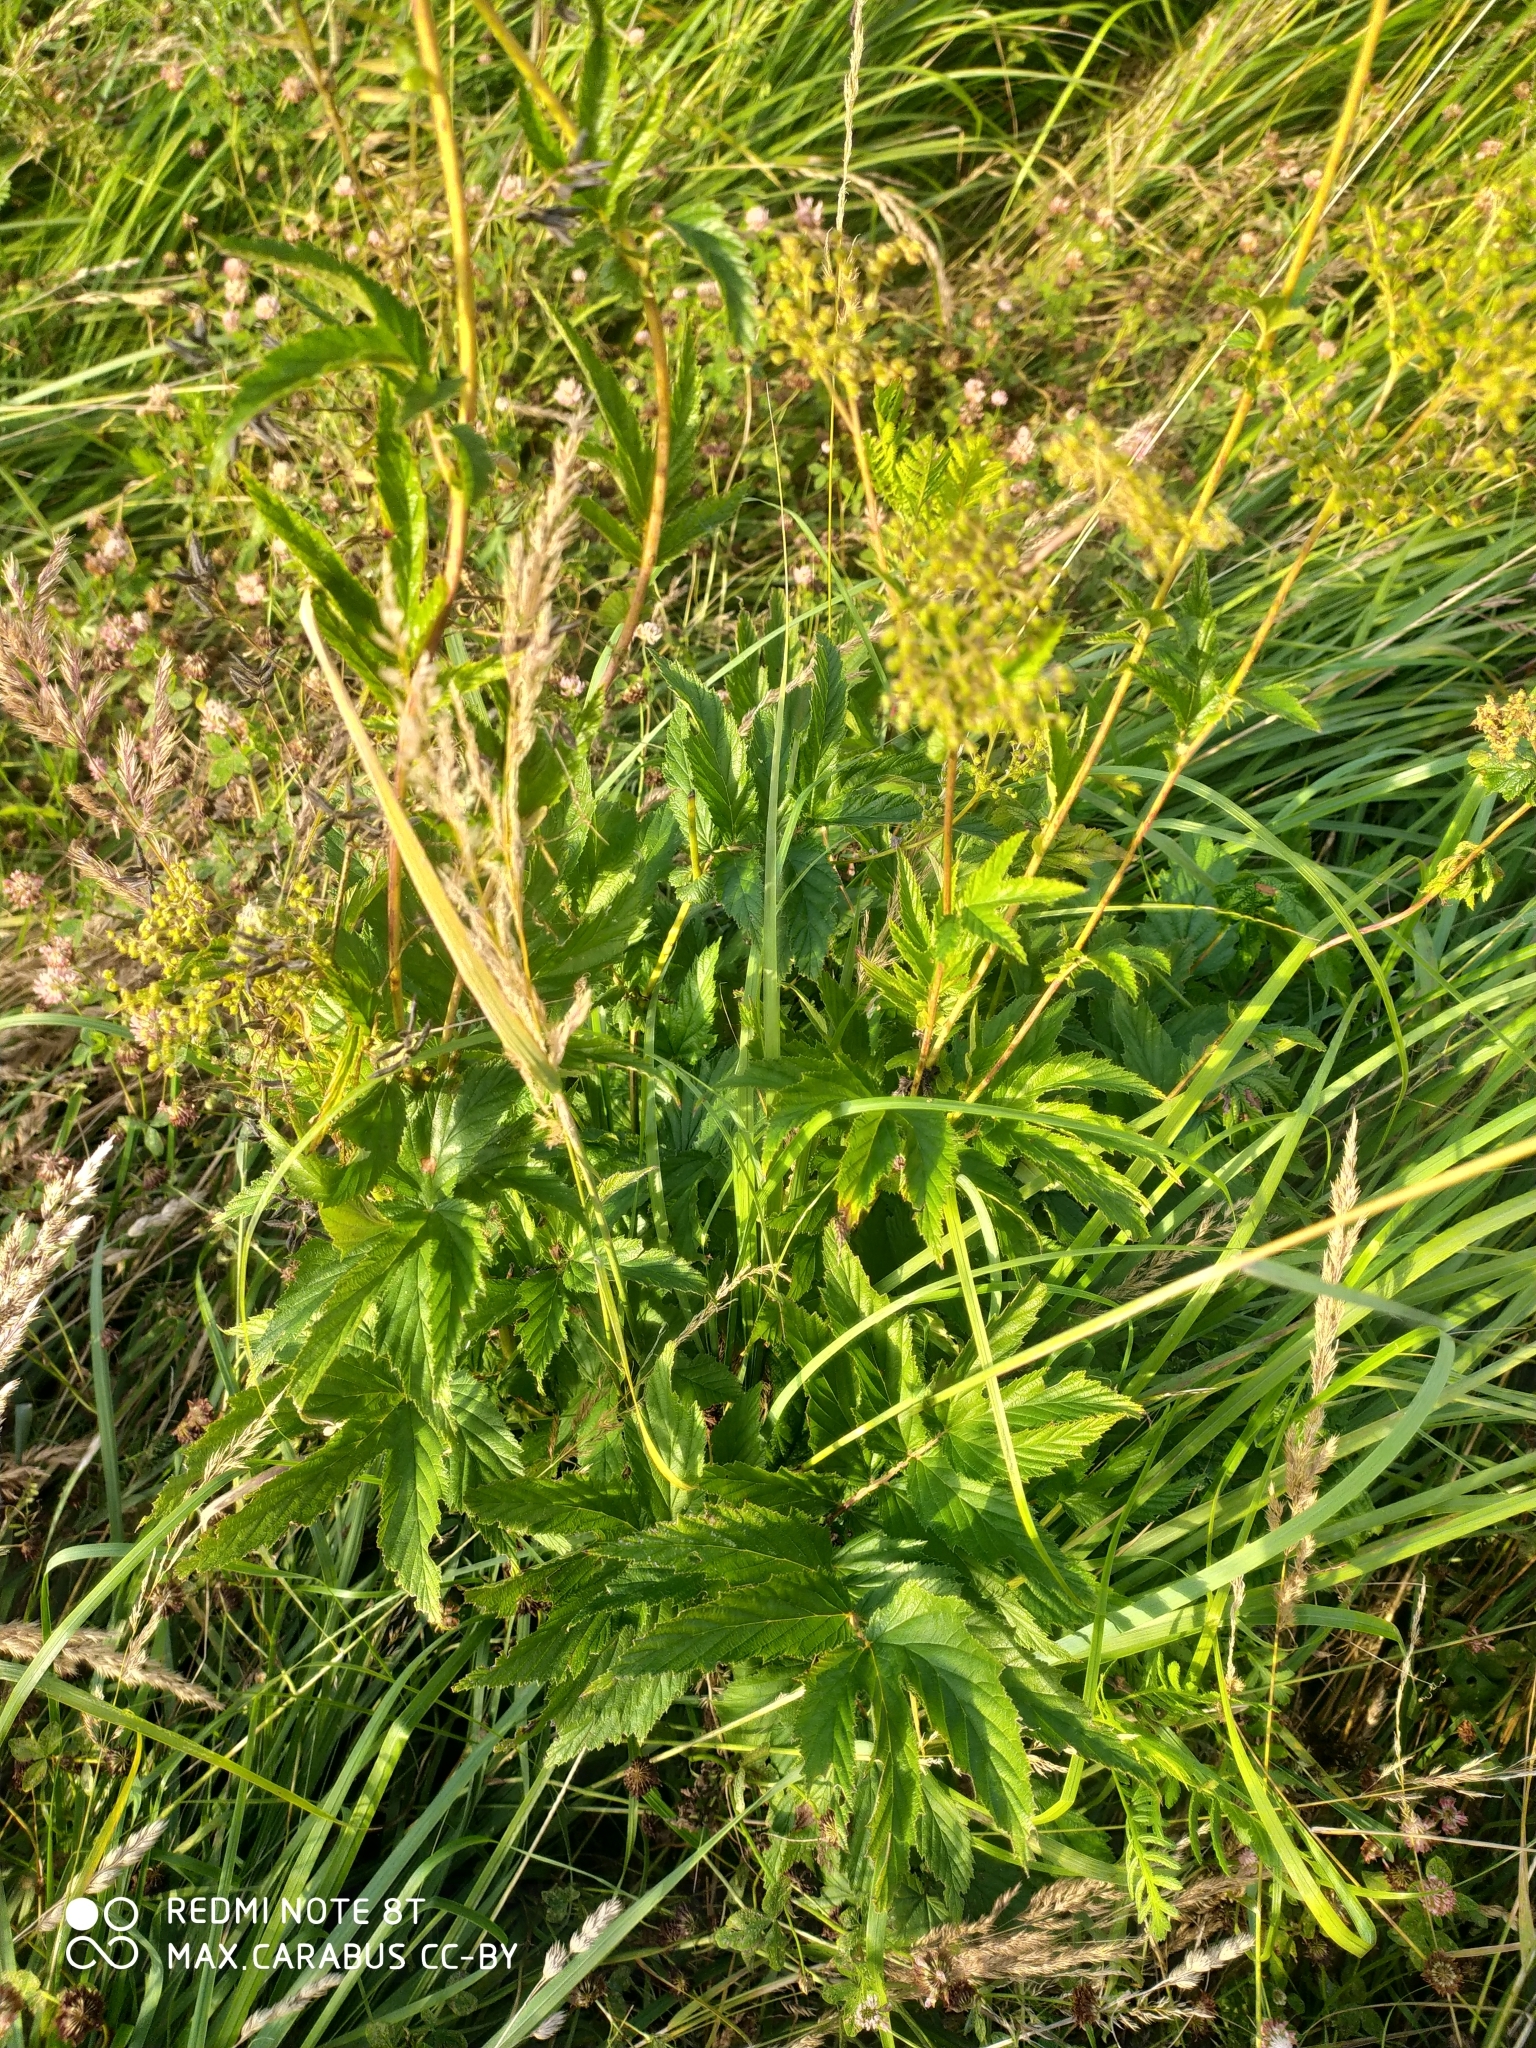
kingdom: Plantae
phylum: Tracheophyta
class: Magnoliopsida
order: Rosales
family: Rosaceae
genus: Filipendula
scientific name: Filipendula ulmaria
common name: Meadowsweet
